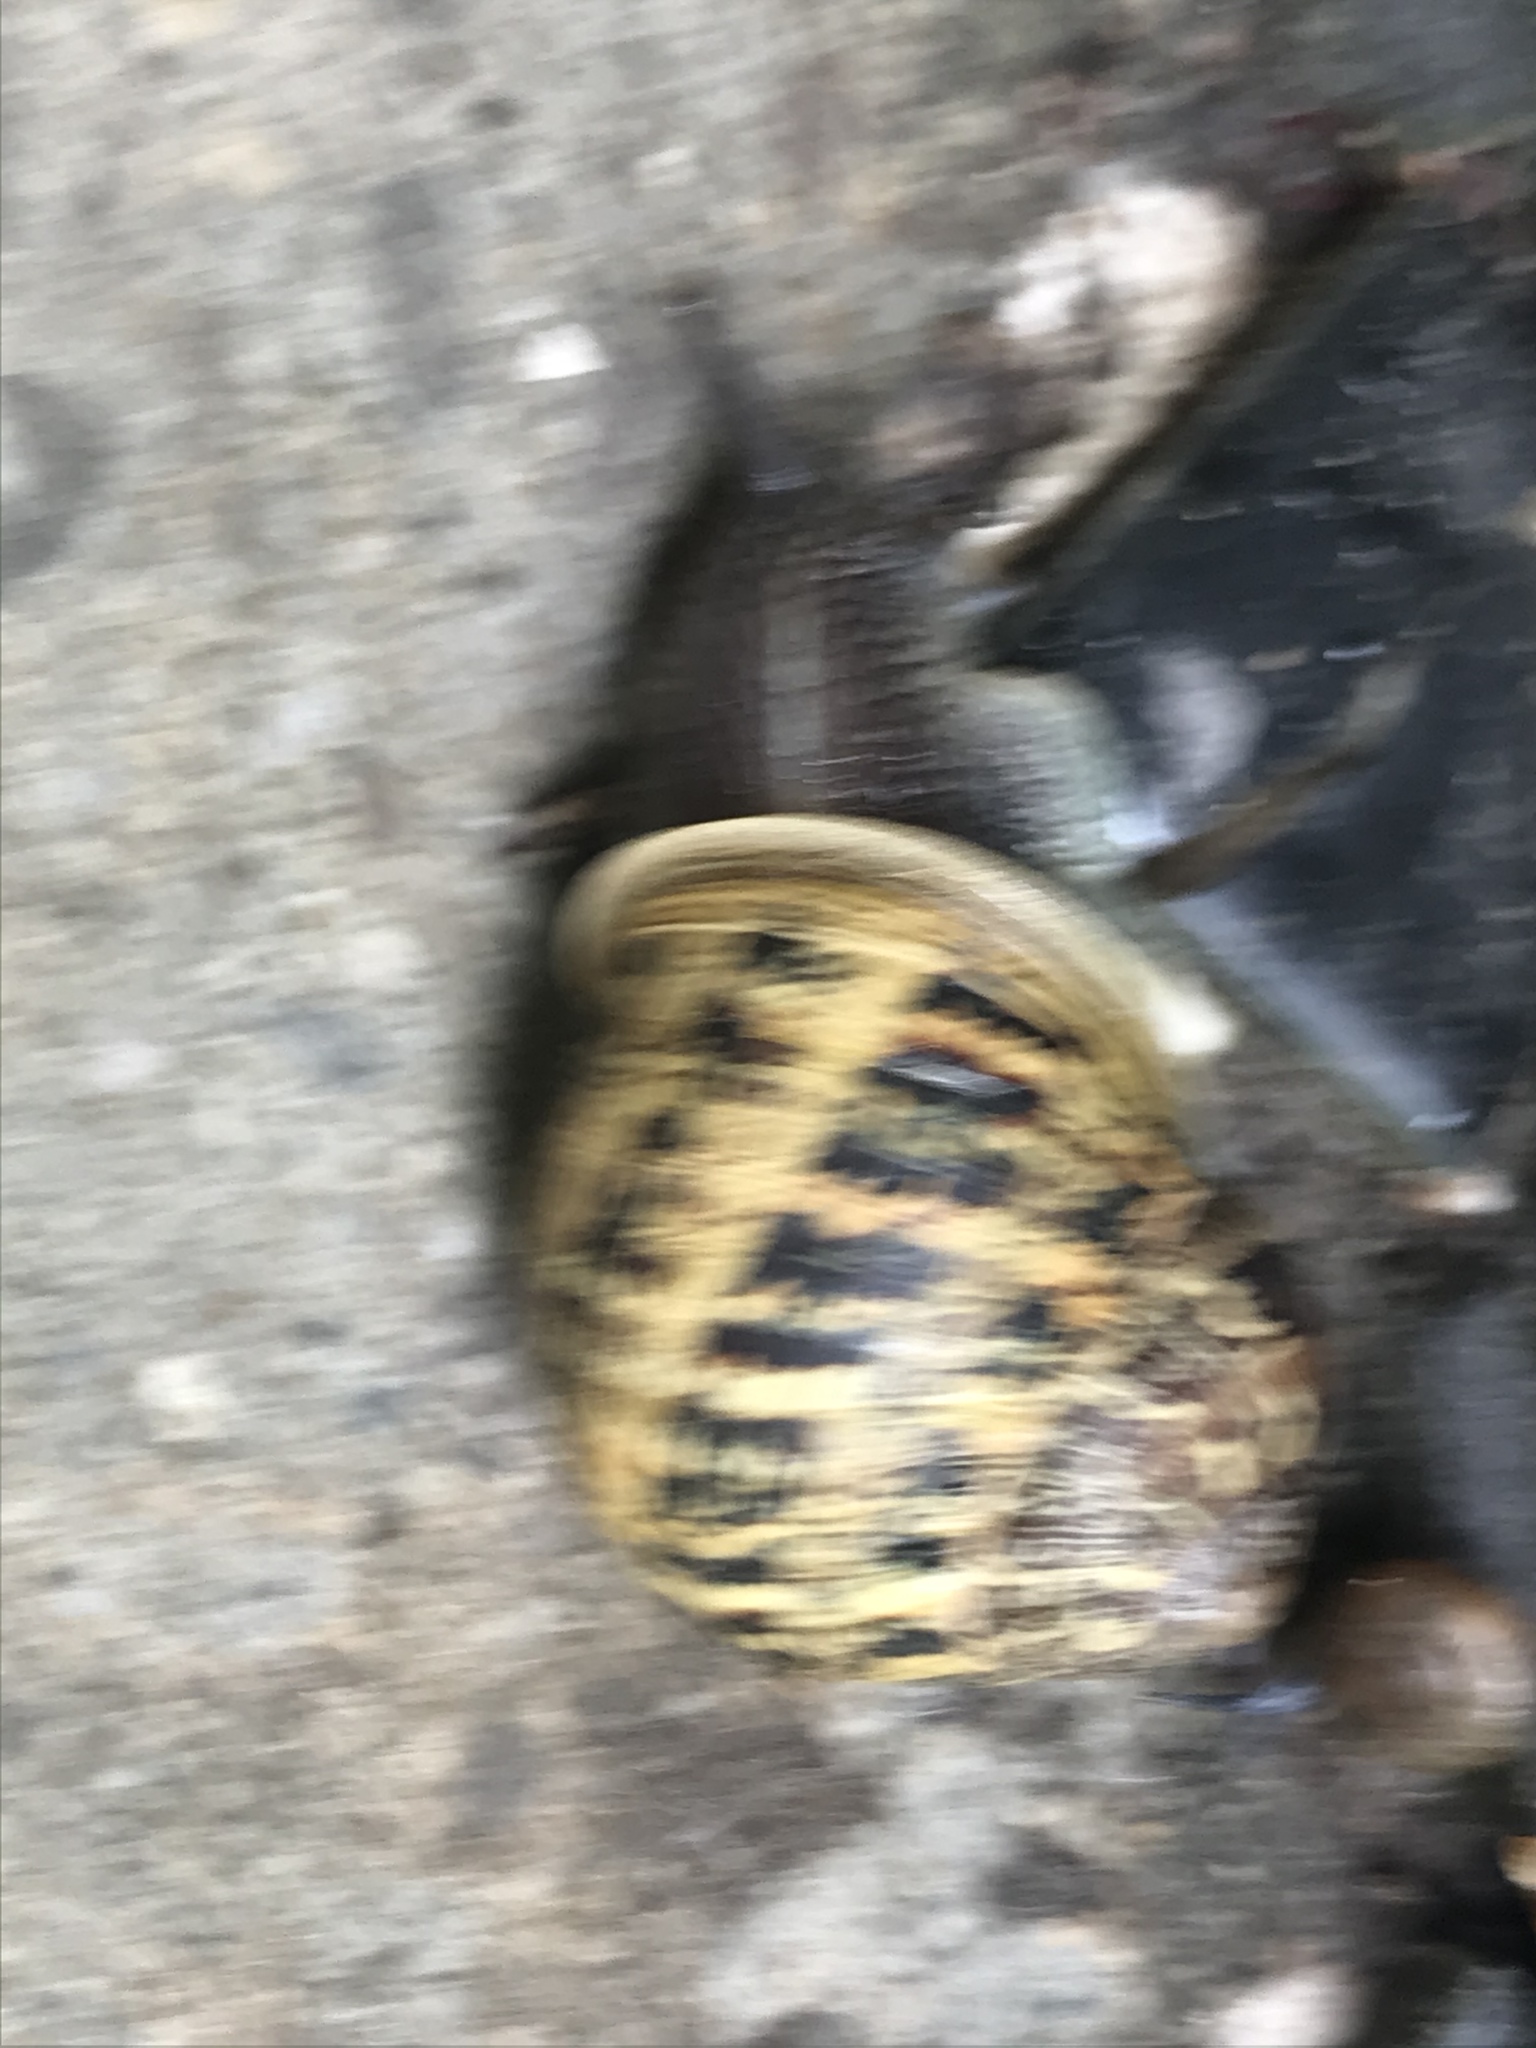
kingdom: Animalia
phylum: Mollusca
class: Gastropoda
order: Stylommatophora
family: Helicidae
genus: Cornu
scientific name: Cornu aspersum
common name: Brown garden snail
